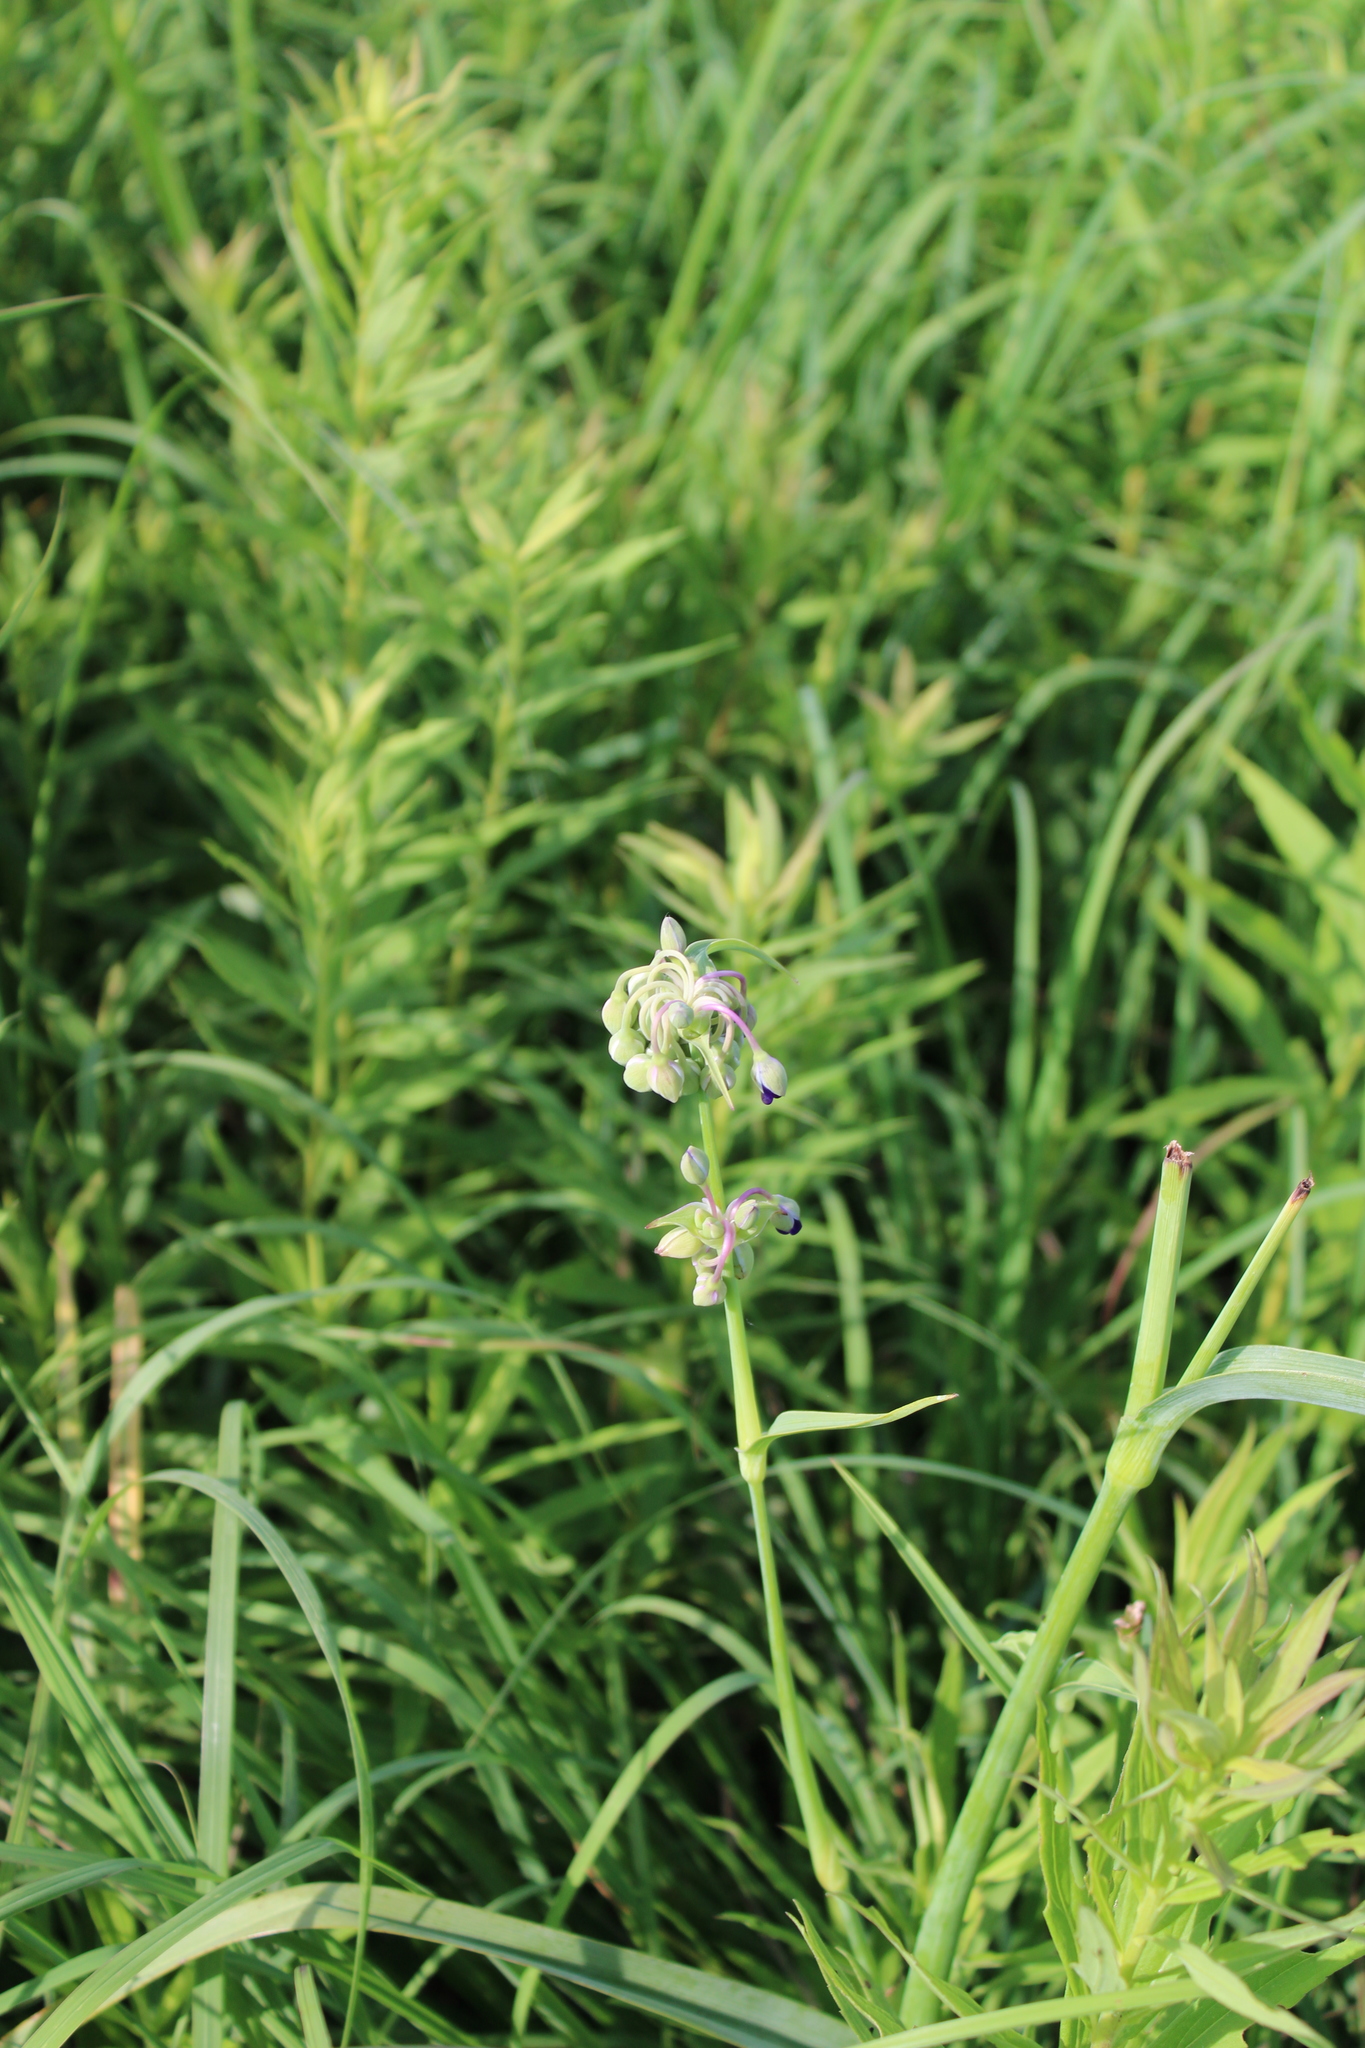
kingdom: Plantae
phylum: Tracheophyta
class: Liliopsida
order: Commelinales
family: Commelinaceae
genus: Tradescantia
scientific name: Tradescantia ohiensis
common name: Ohio spiderwort
